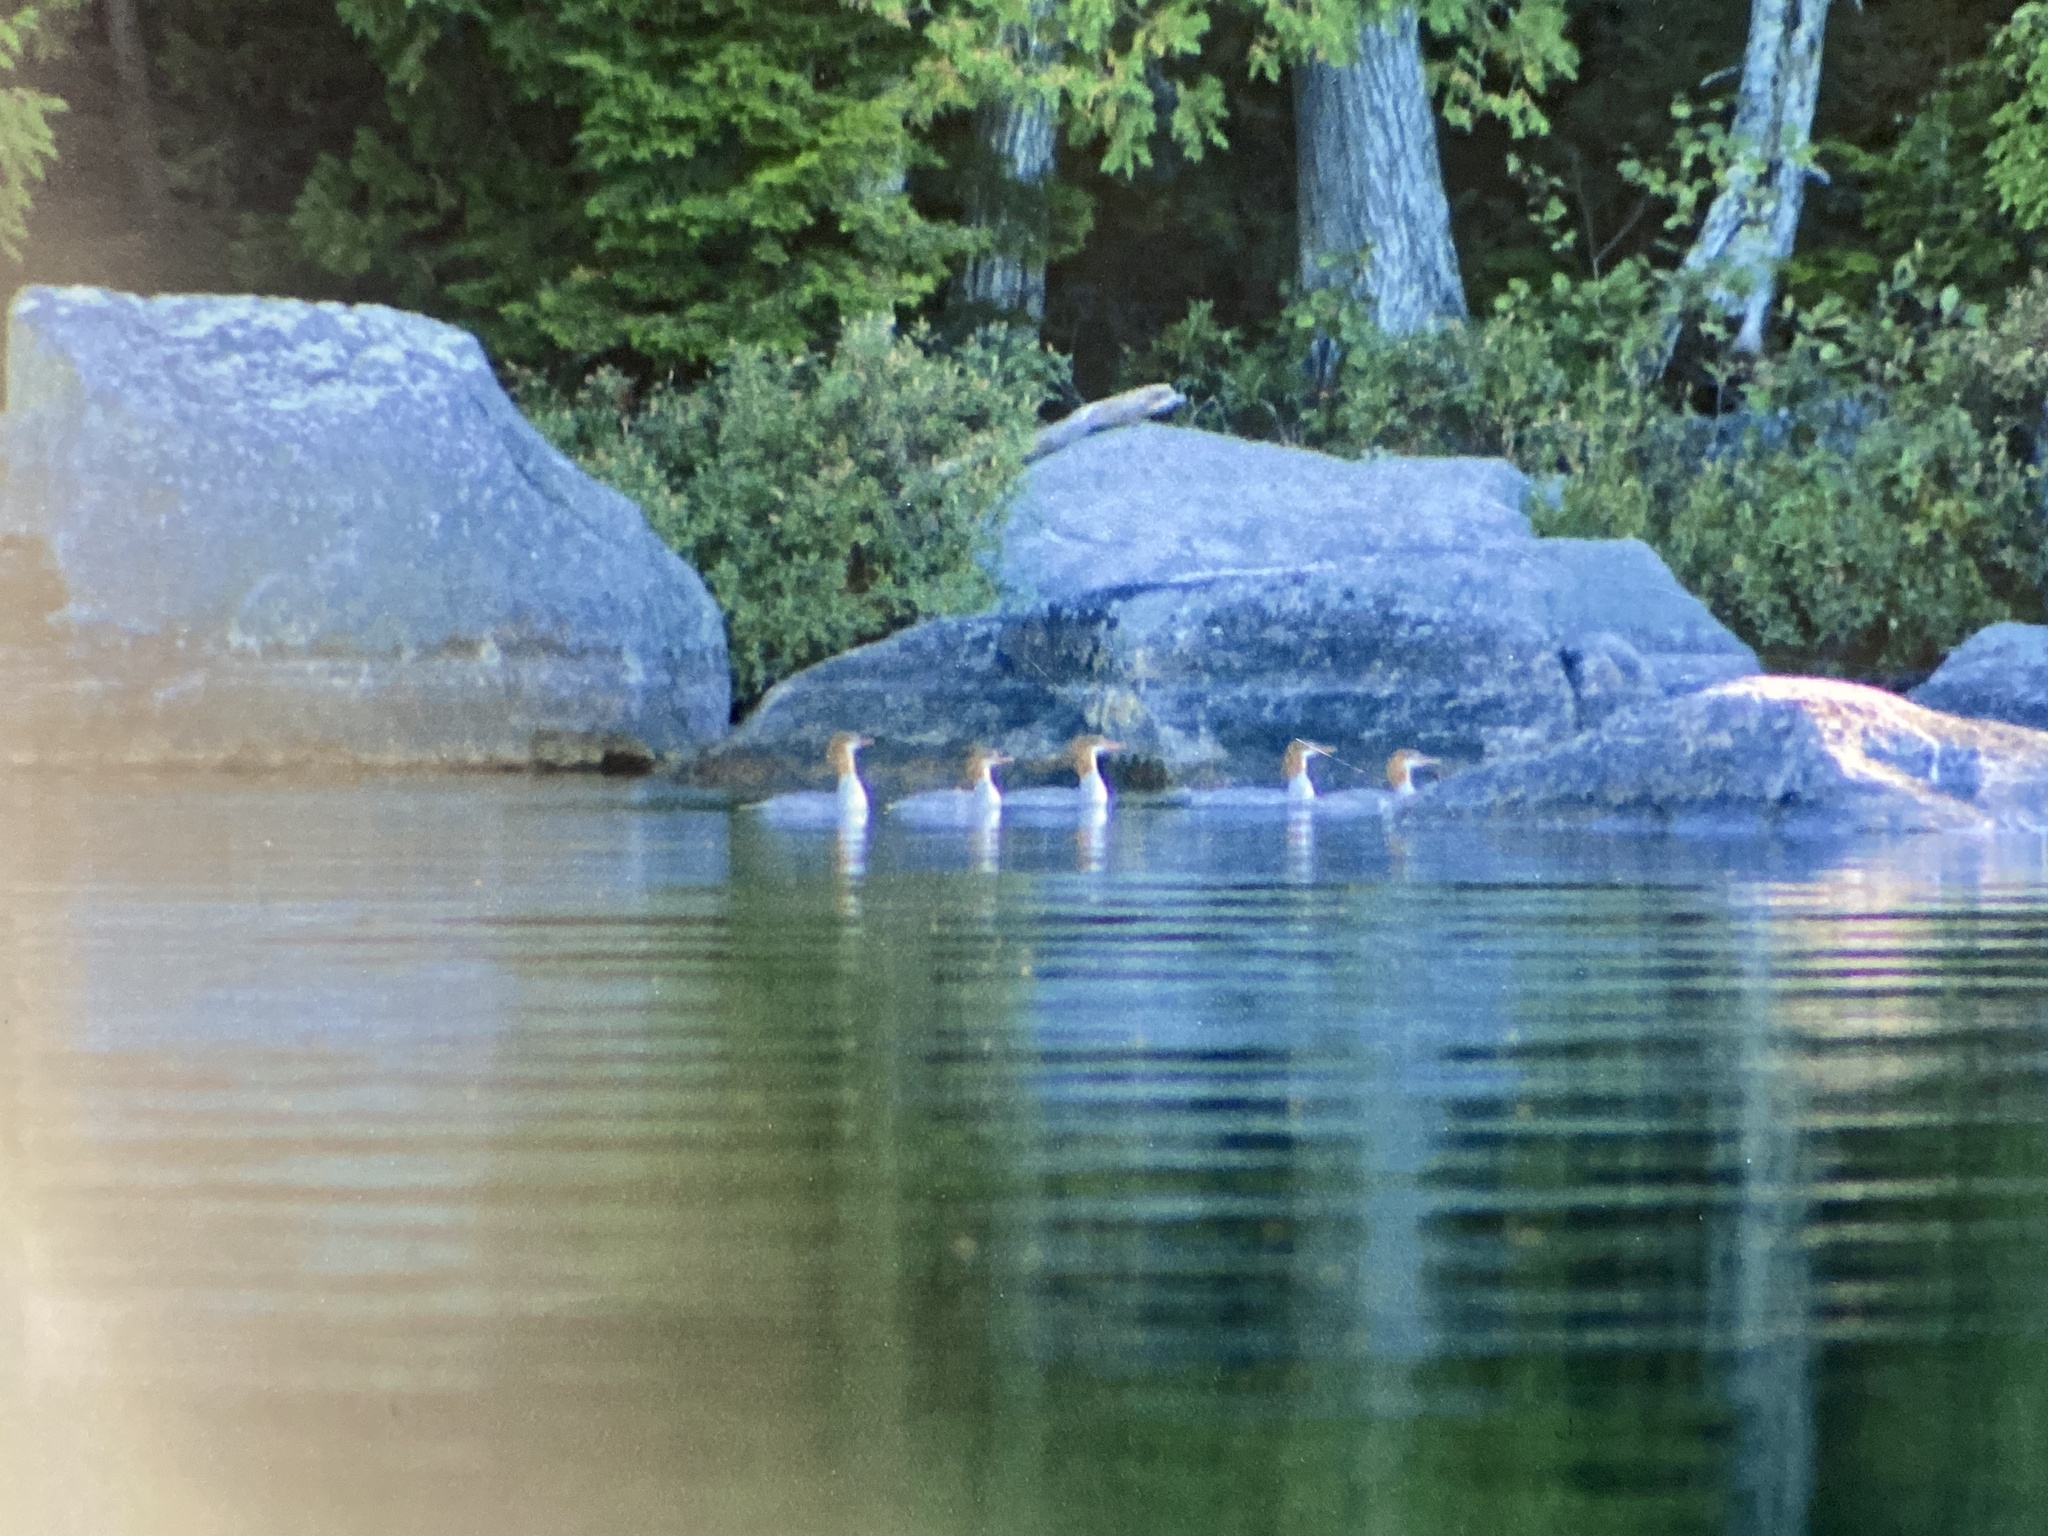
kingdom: Animalia
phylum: Chordata
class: Aves
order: Anseriformes
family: Anatidae
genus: Mergus
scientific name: Mergus merganser
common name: Common merganser
